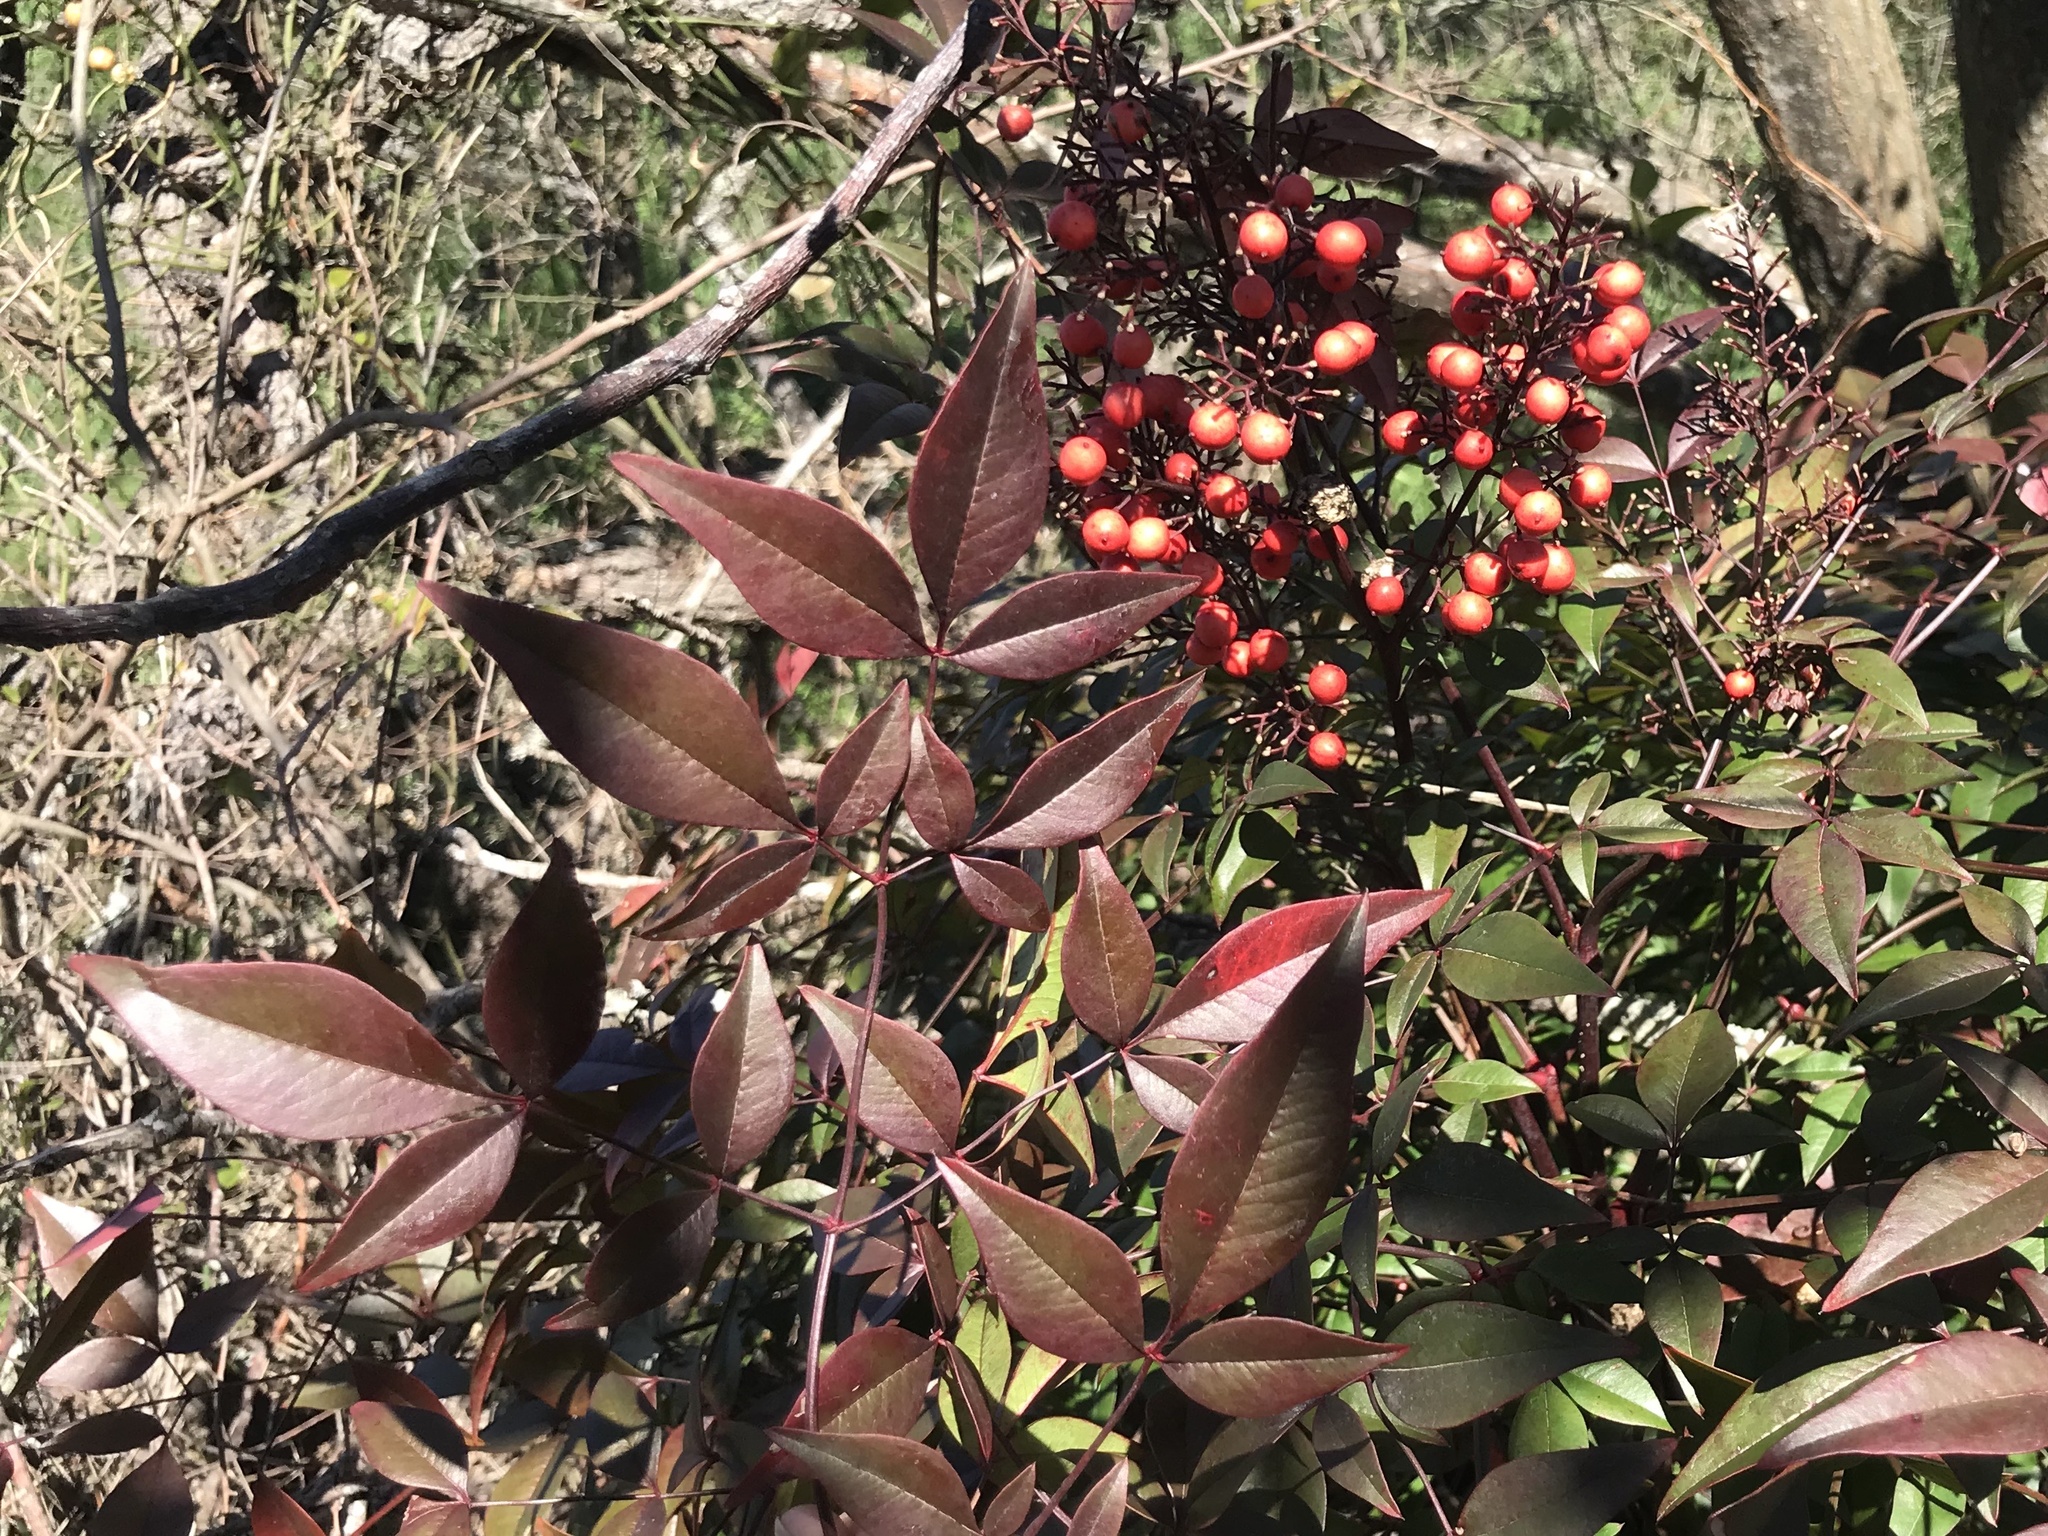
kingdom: Plantae
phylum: Tracheophyta
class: Magnoliopsida
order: Ranunculales
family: Berberidaceae
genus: Nandina
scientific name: Nandina domestica
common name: Sacred bamboo
